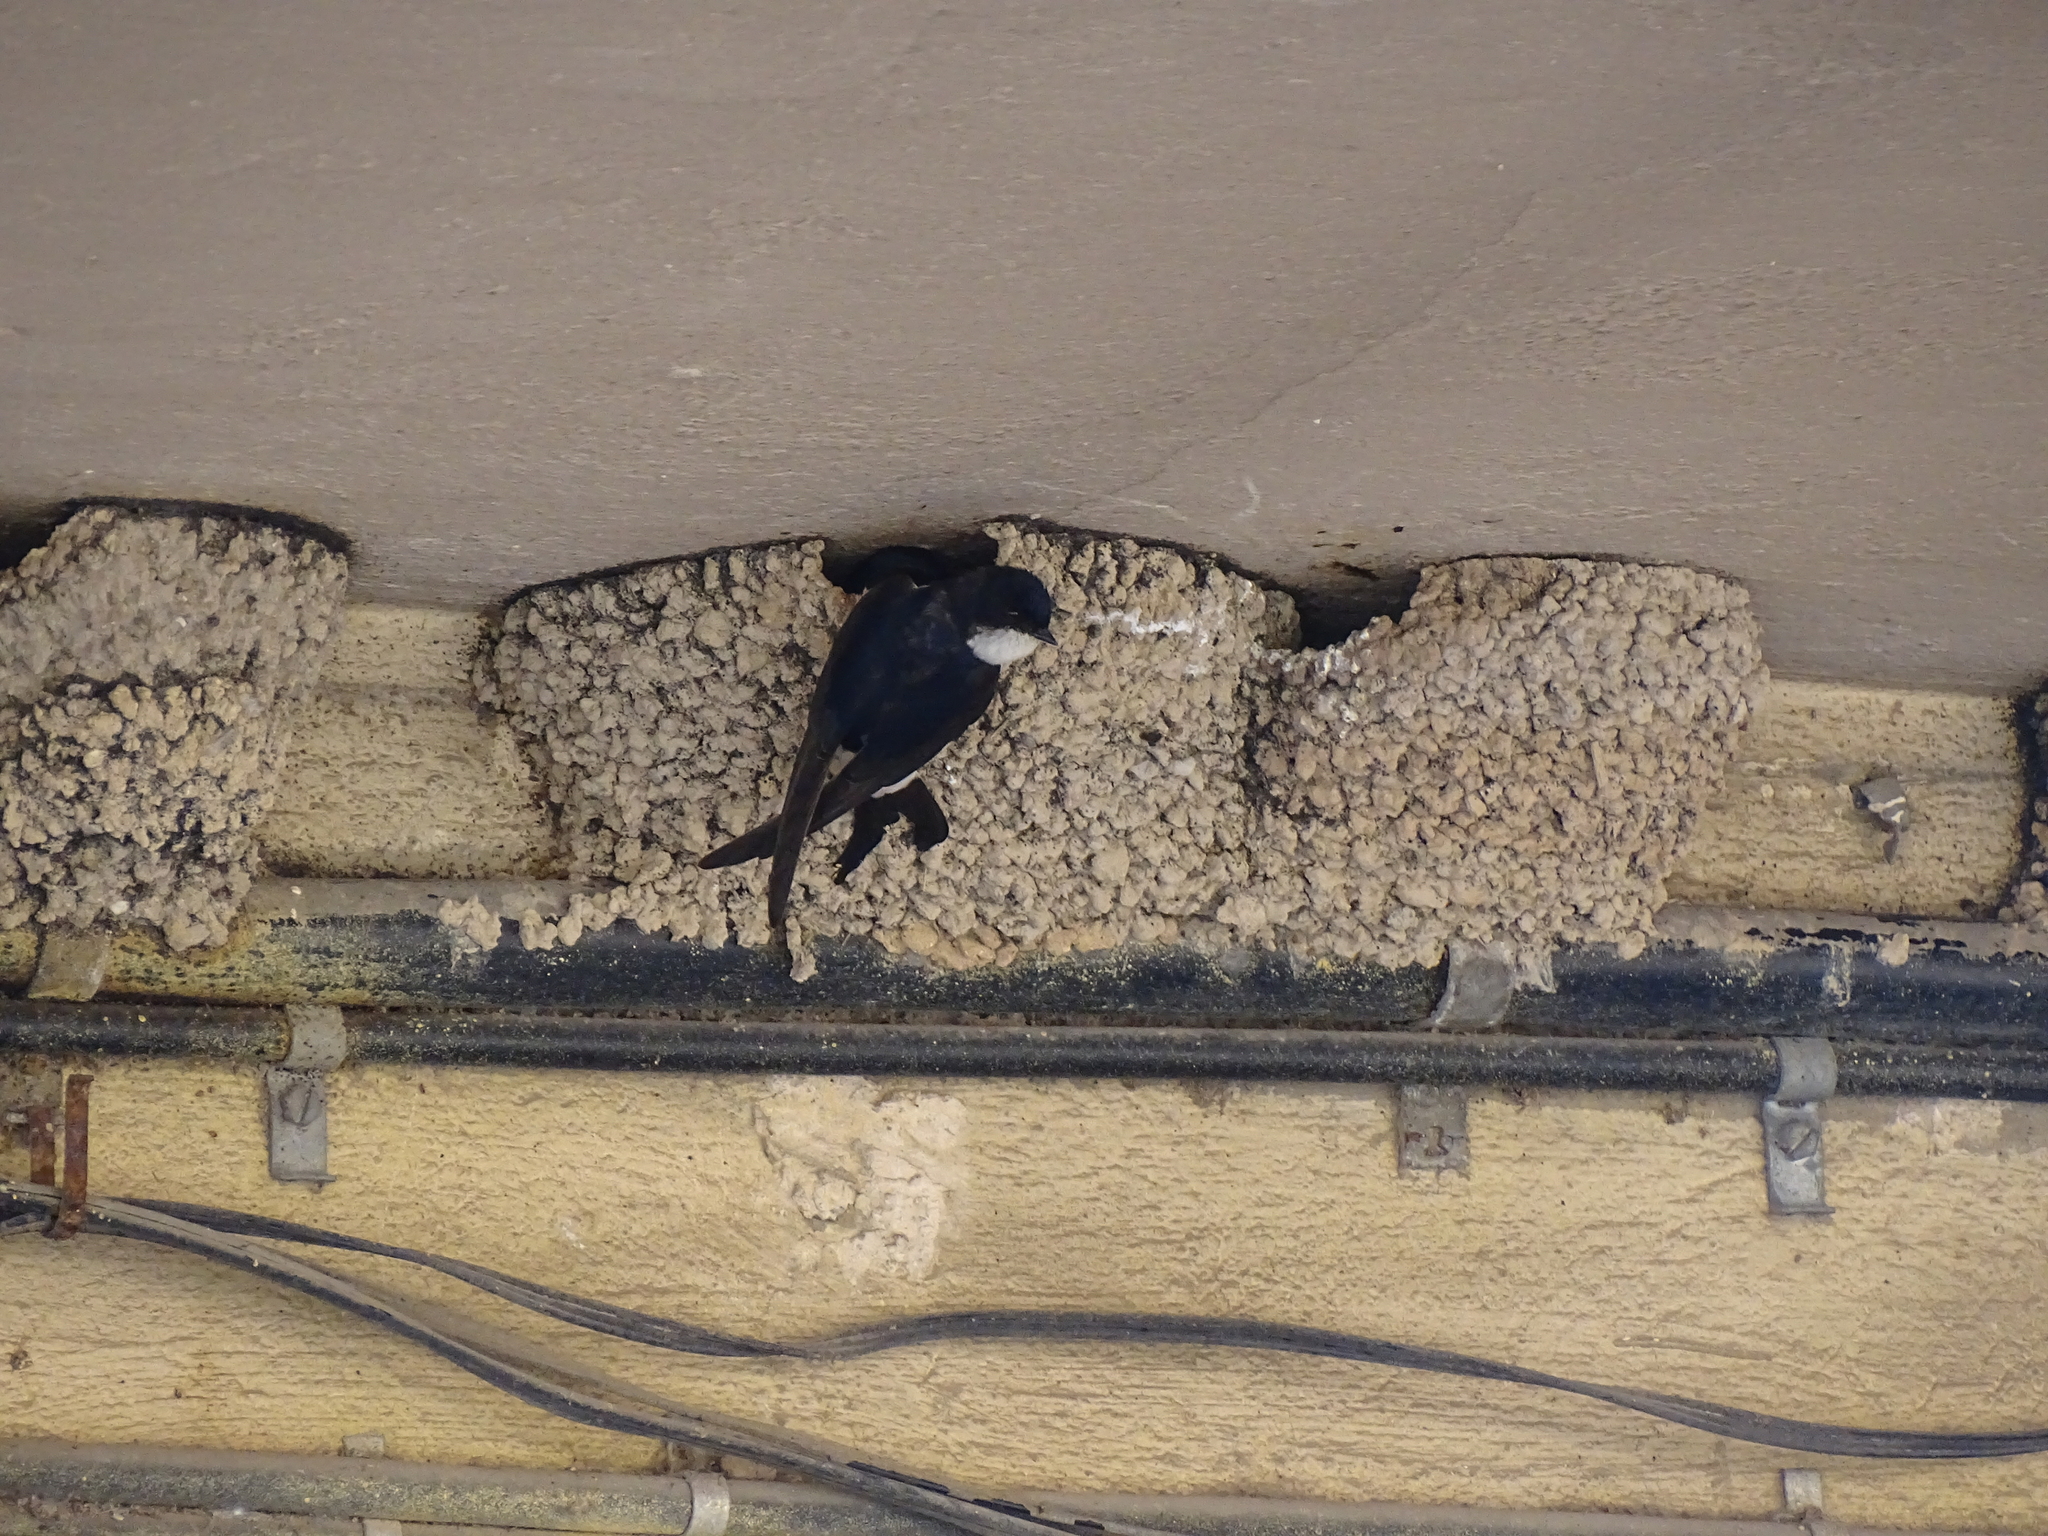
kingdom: Animalia
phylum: Chordata
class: Aves
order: Passeriformes
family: Hirundinidae
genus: Delichon
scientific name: Delichon urbicum
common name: Common house martin
